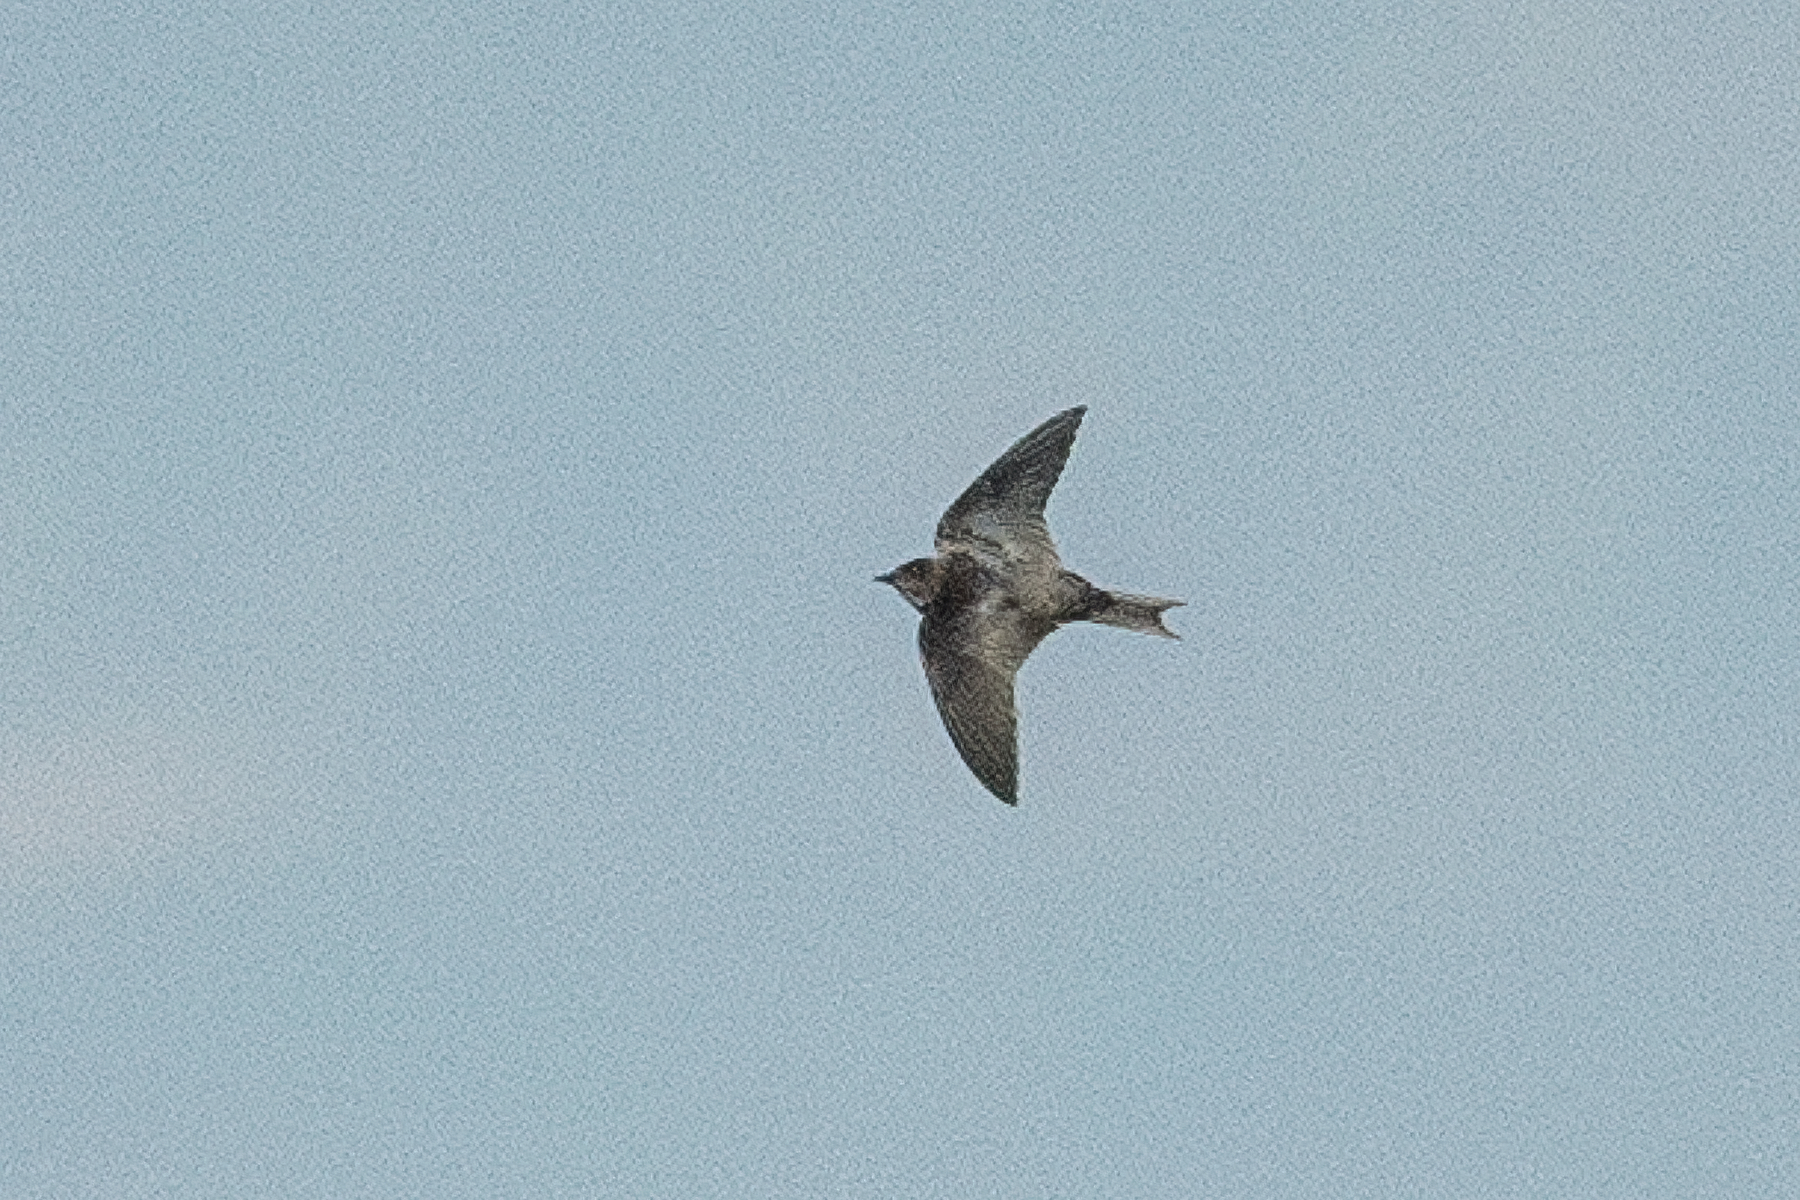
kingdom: Animalia
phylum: Chordata
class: Aves
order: Passeriformes
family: Hirundinidae
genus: Progne
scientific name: Progne chalybea
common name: Grey-breasted martin
